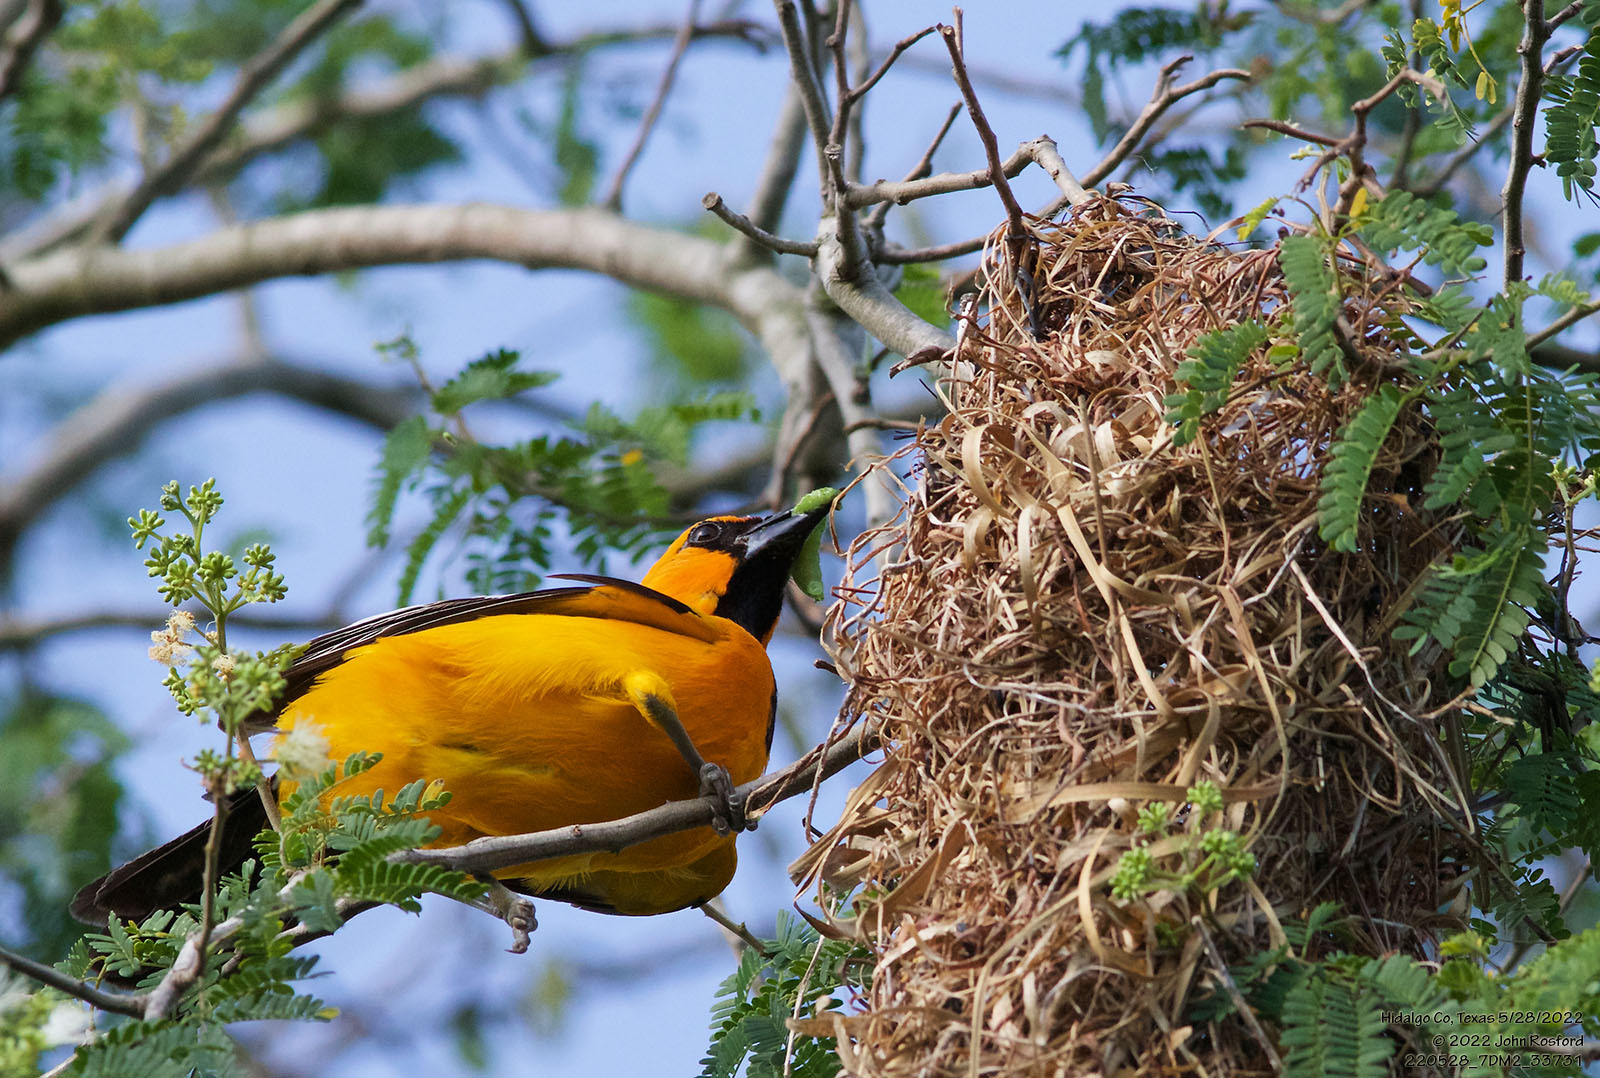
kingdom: Animalia
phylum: Chordata
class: Aves
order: Passeriformes
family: Icteridae
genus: Icterus
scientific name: Icterus gularis
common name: Altamira oriole
